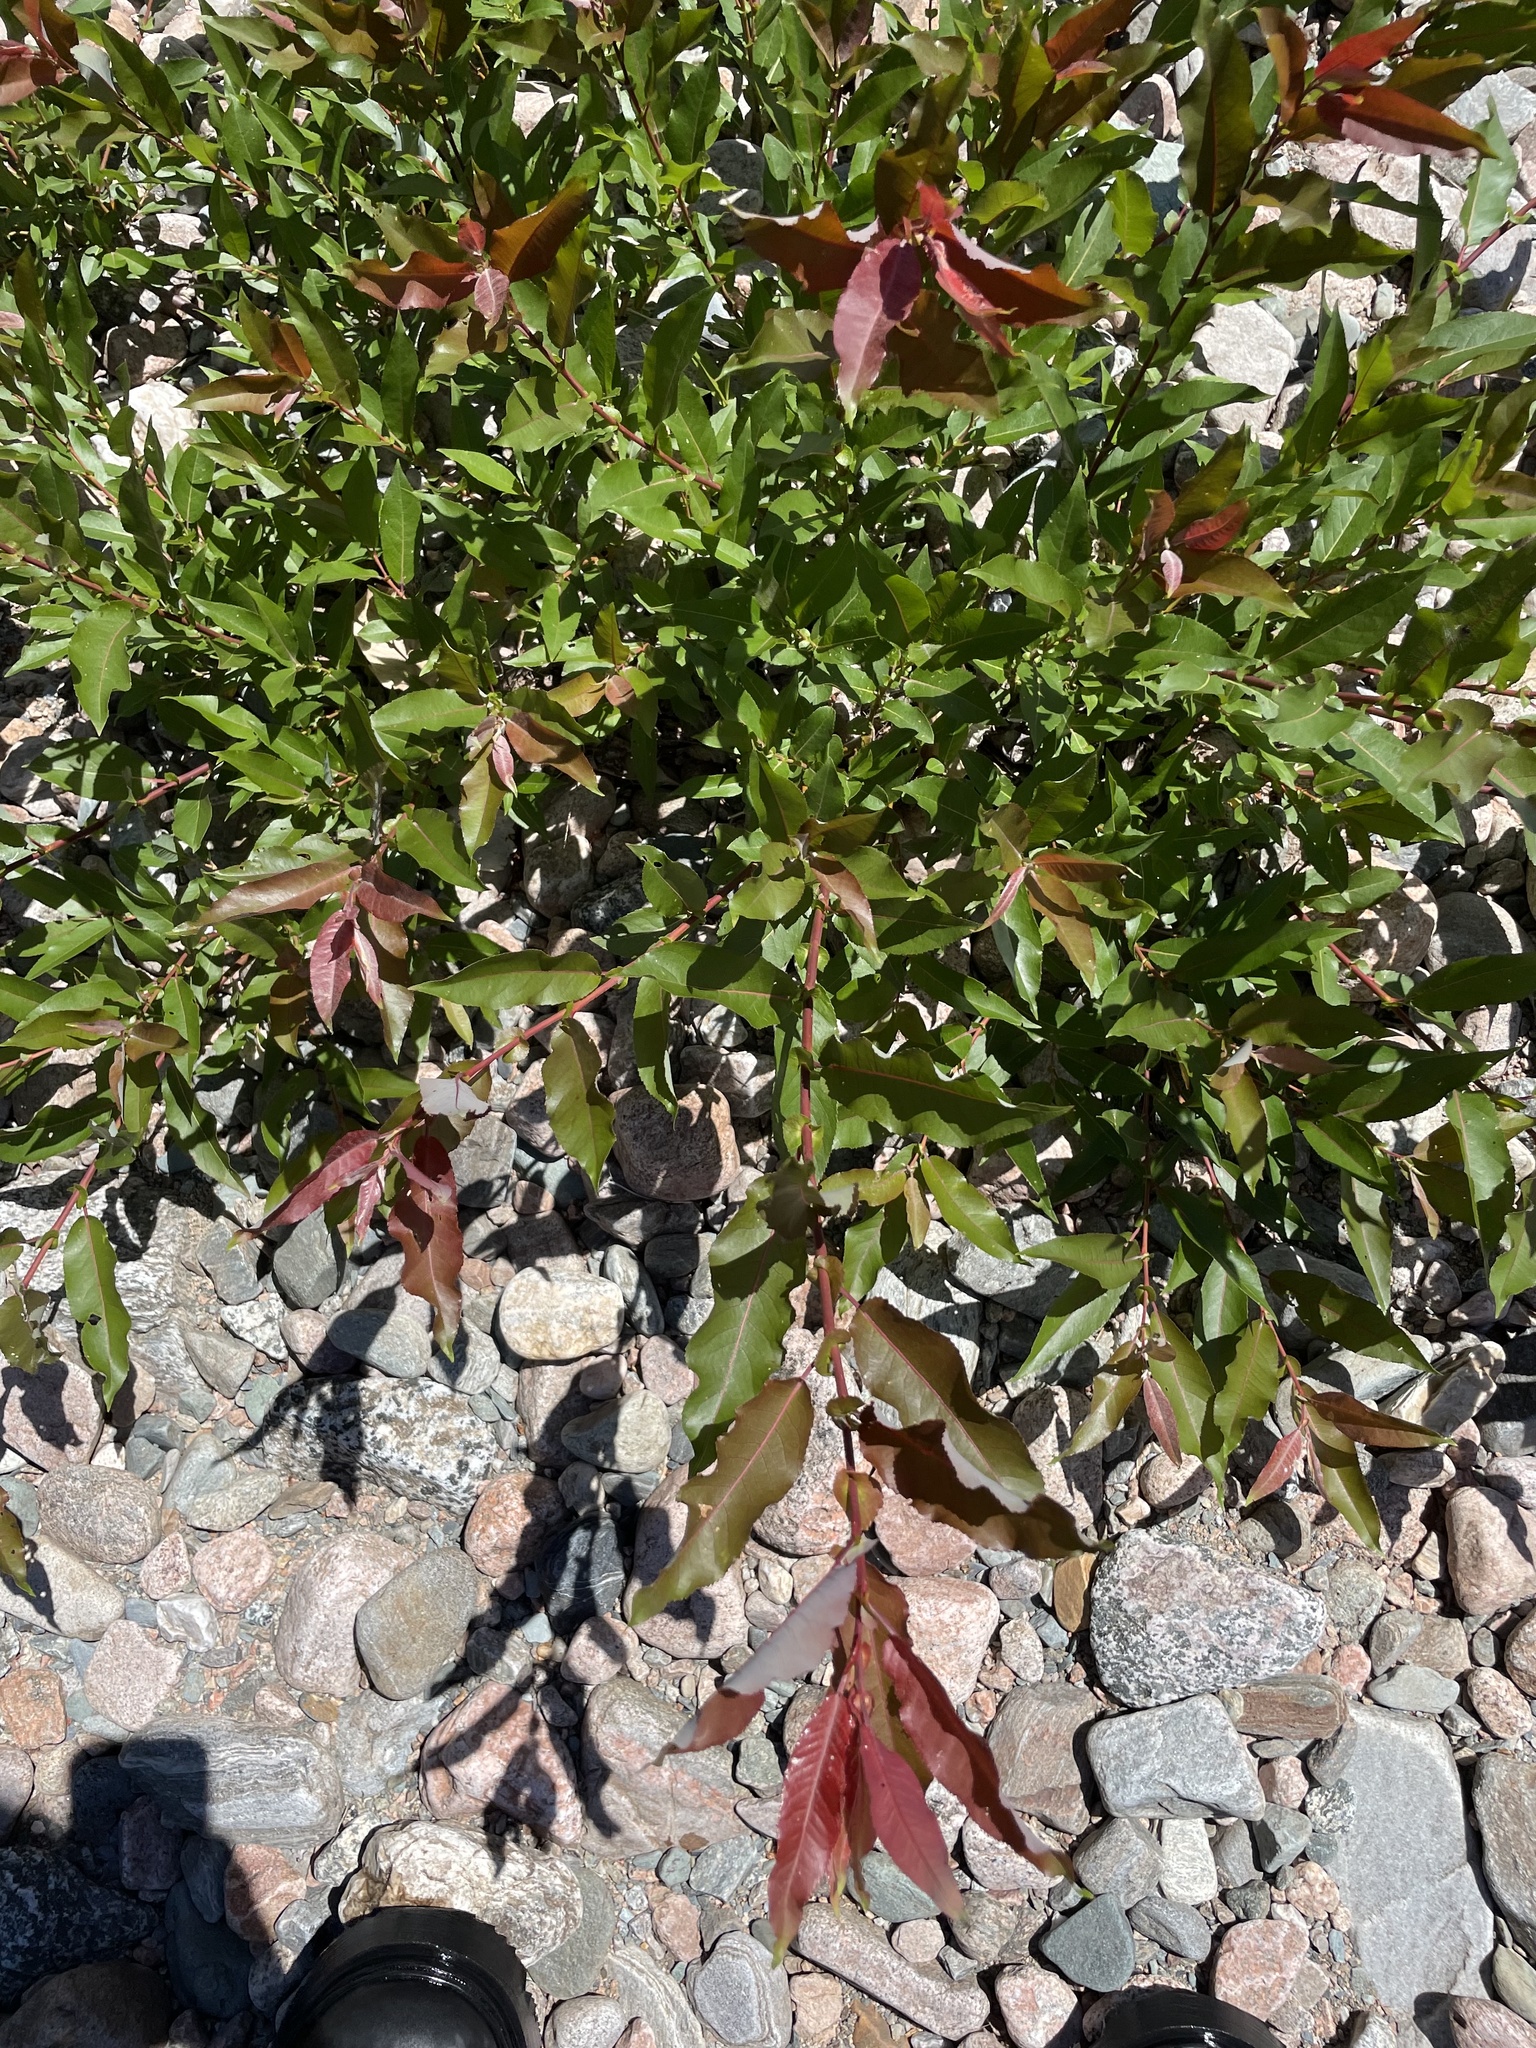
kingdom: Plantae
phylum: Tracheophyta
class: Magnoliopsida
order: Malpighiales
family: Salicaceae
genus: Salix
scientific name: Salix eriocephala
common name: Heart-leaved willow
